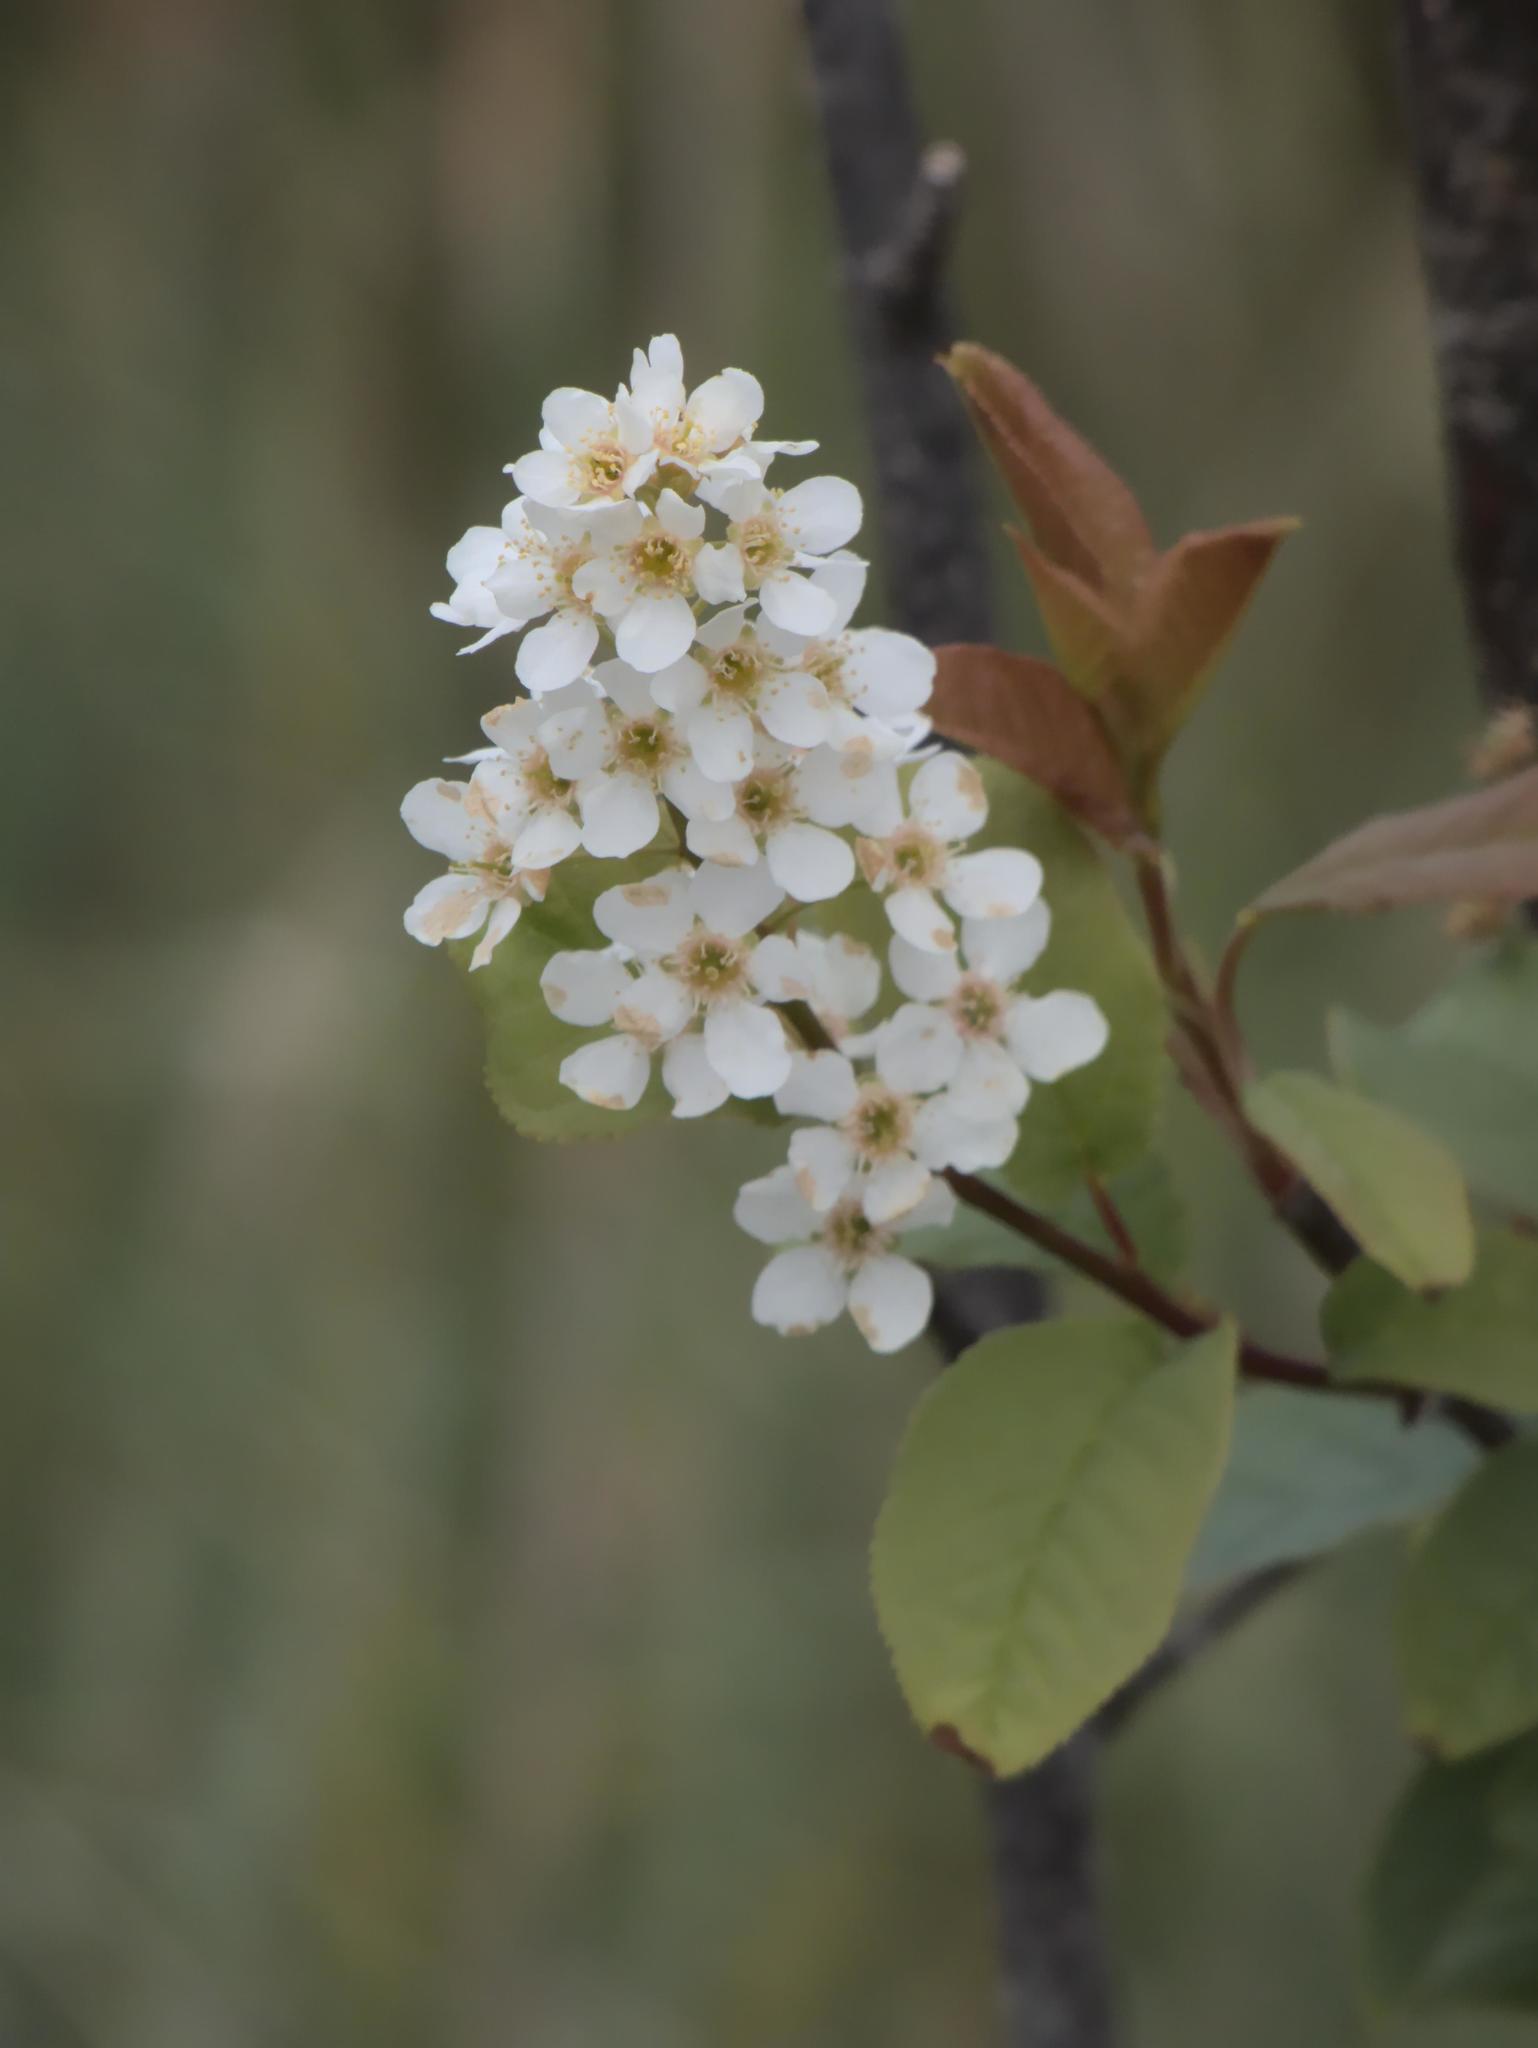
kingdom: Plantae
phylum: Tracheophyta
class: Magnoliopsida
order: Rosales
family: Rosaceae
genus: Prunus
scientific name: Prunus padus
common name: Bird cherry
